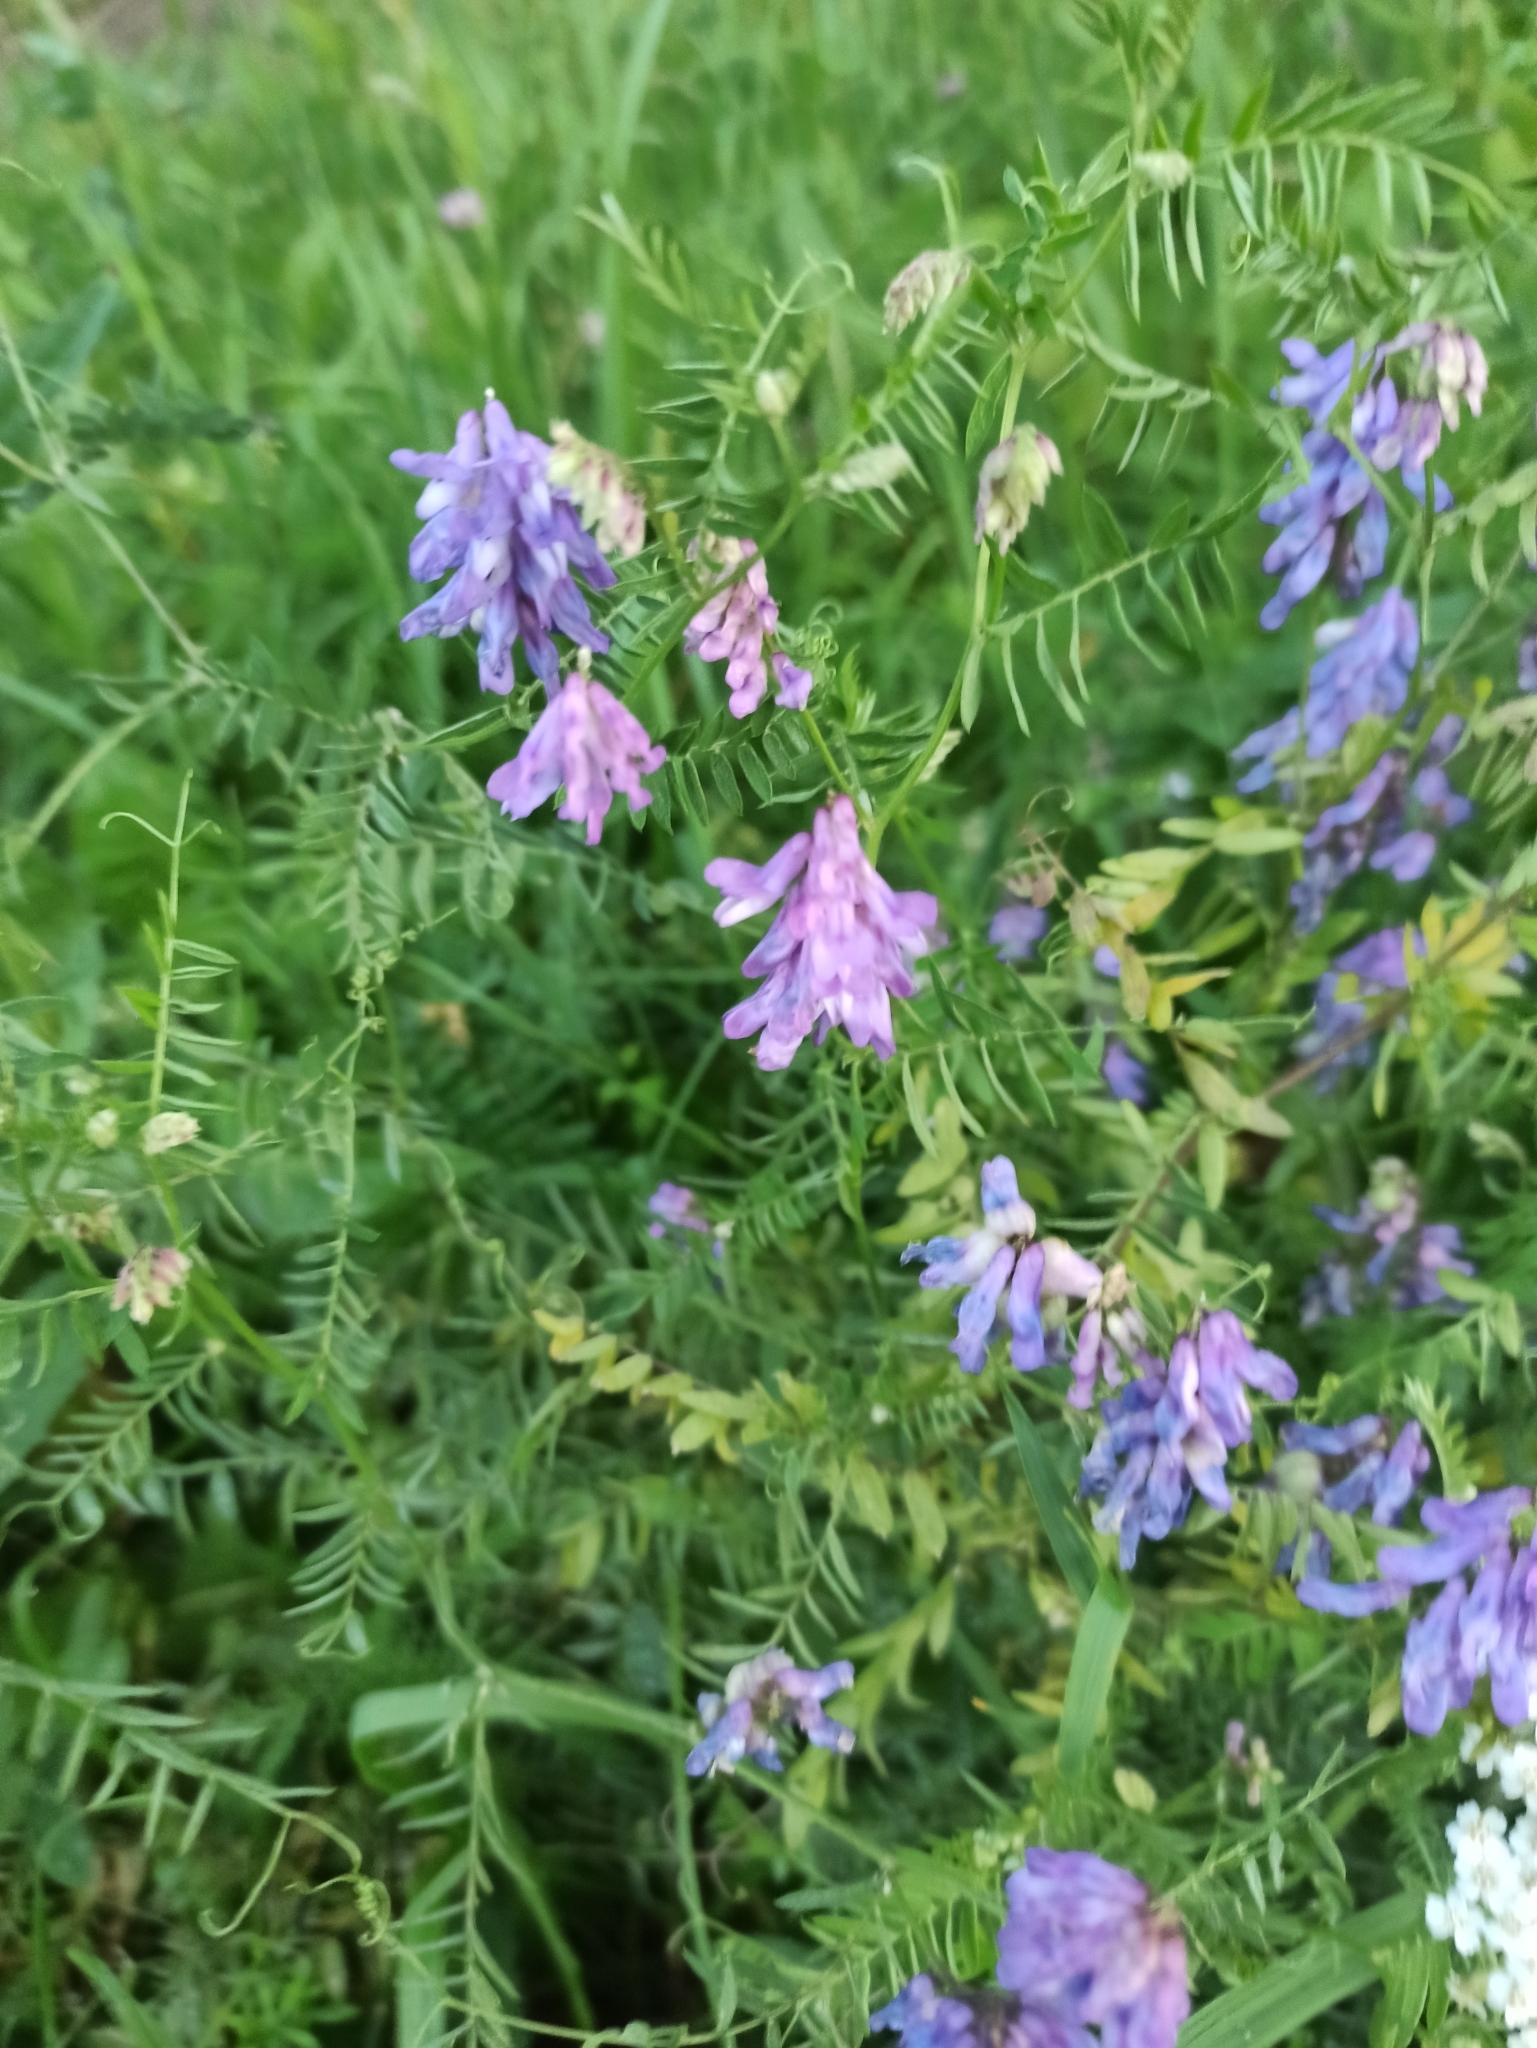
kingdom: Plantae
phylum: Tracheophyta
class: Magnoliopsida
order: Fabales
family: Fabaceae
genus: Vicia
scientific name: Vicia cracca
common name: Bird vetch
